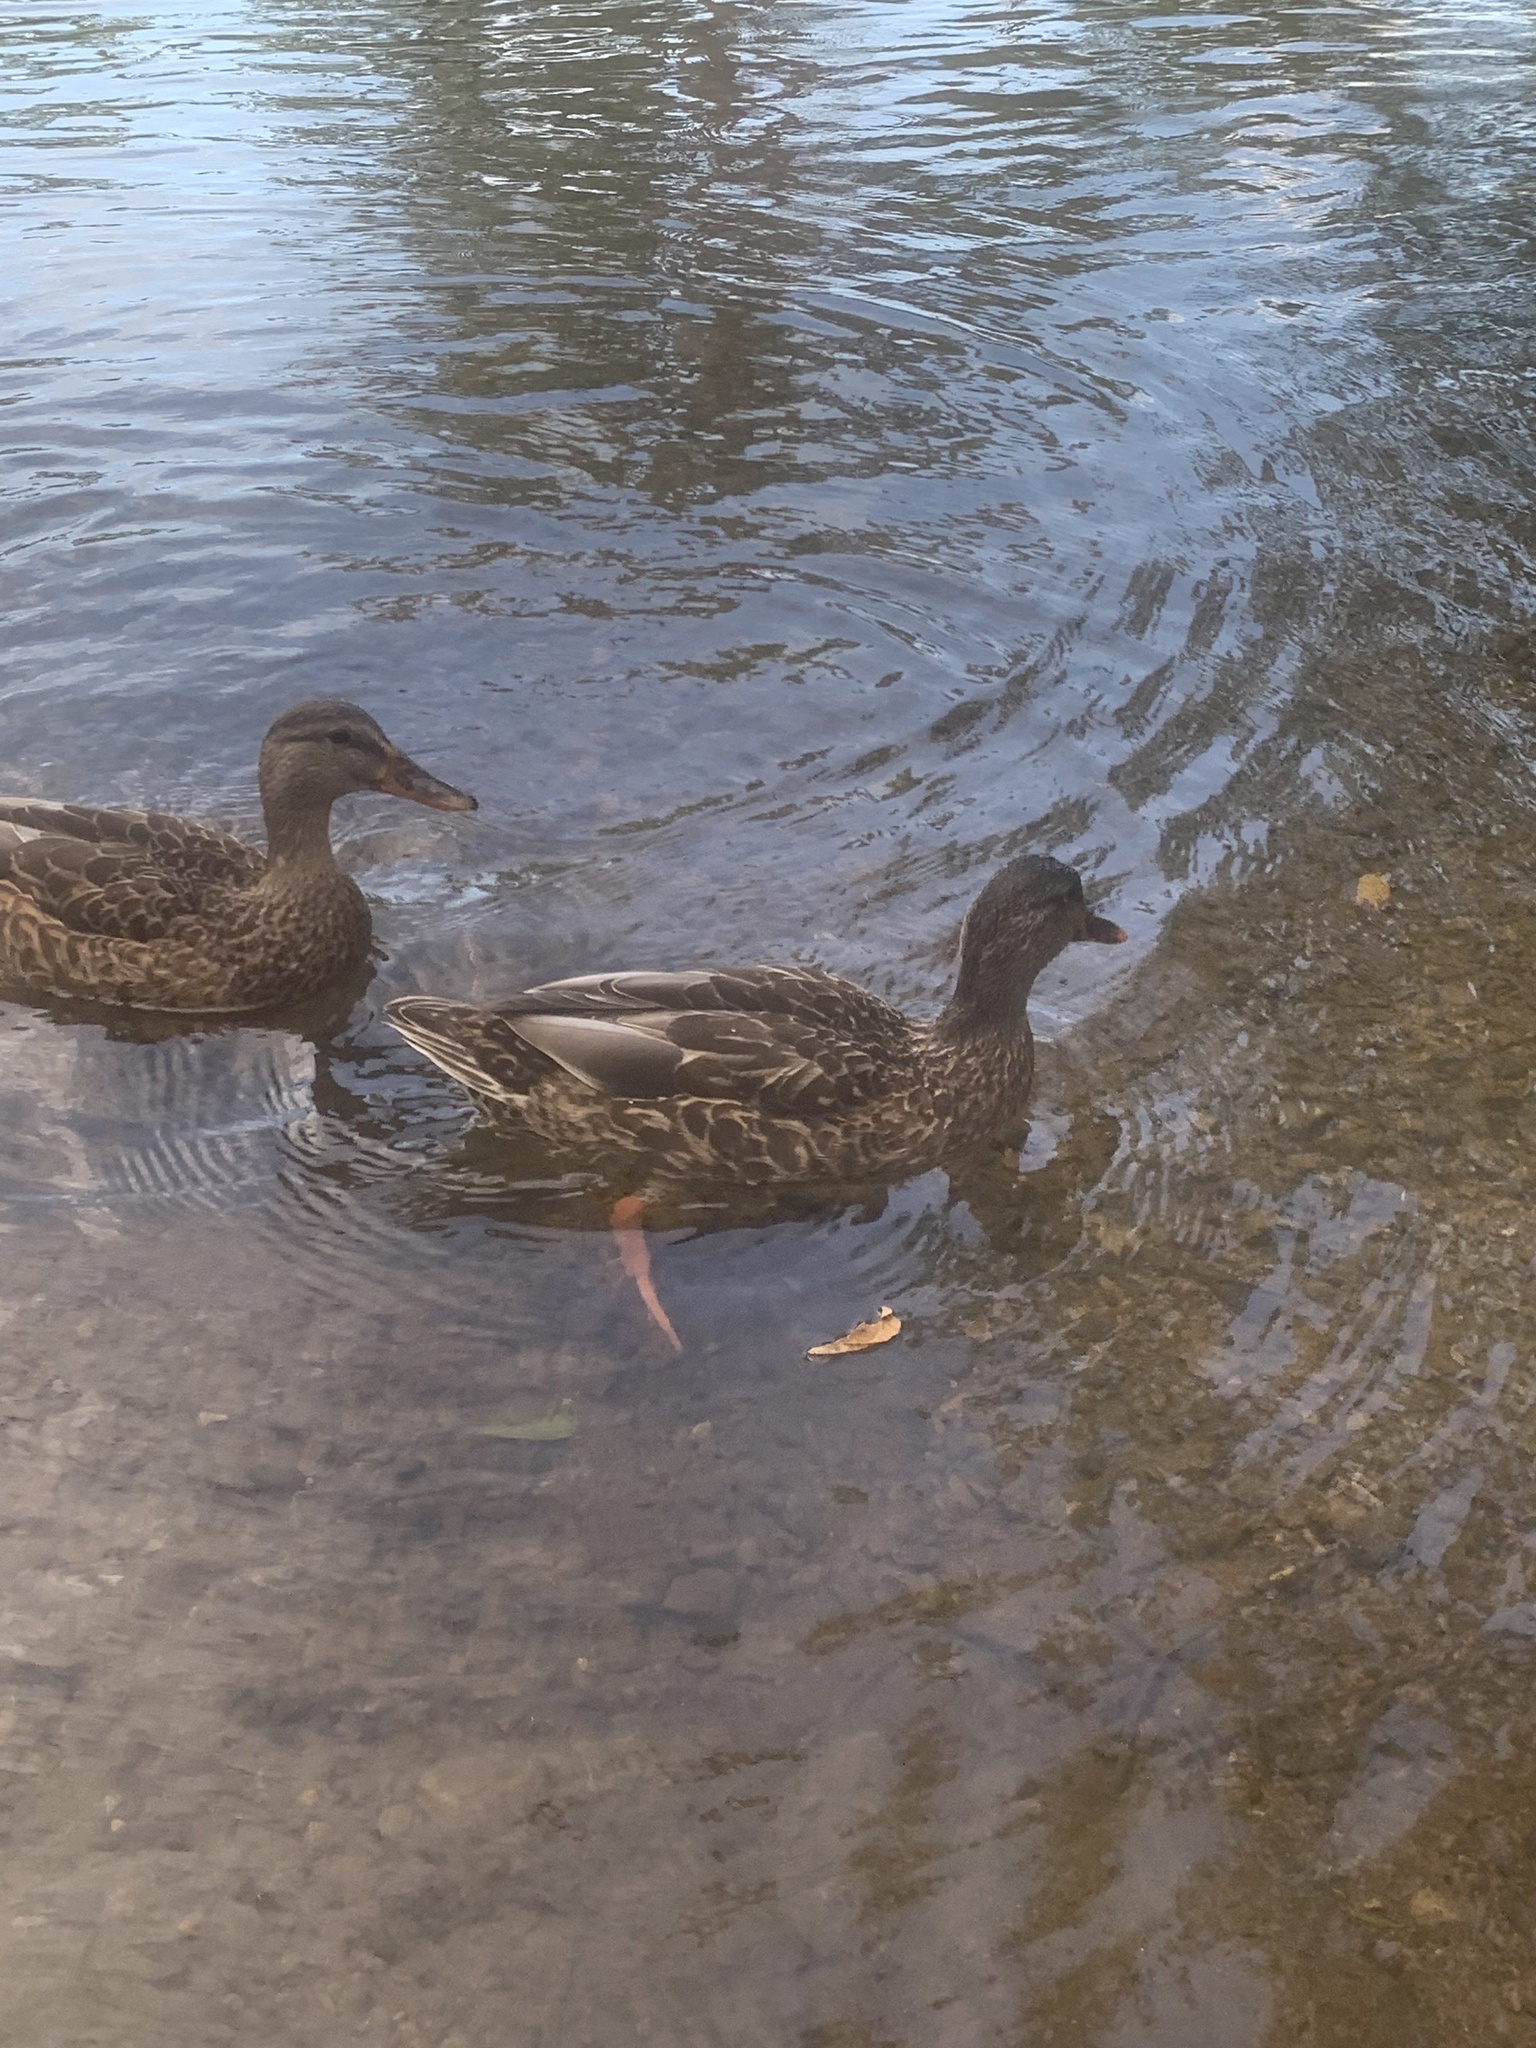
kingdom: Animalia
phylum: Chordata
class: Aves
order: Anseriformes
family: Anatidae
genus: Anas
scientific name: Anas platyrhynchos
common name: Mallard
